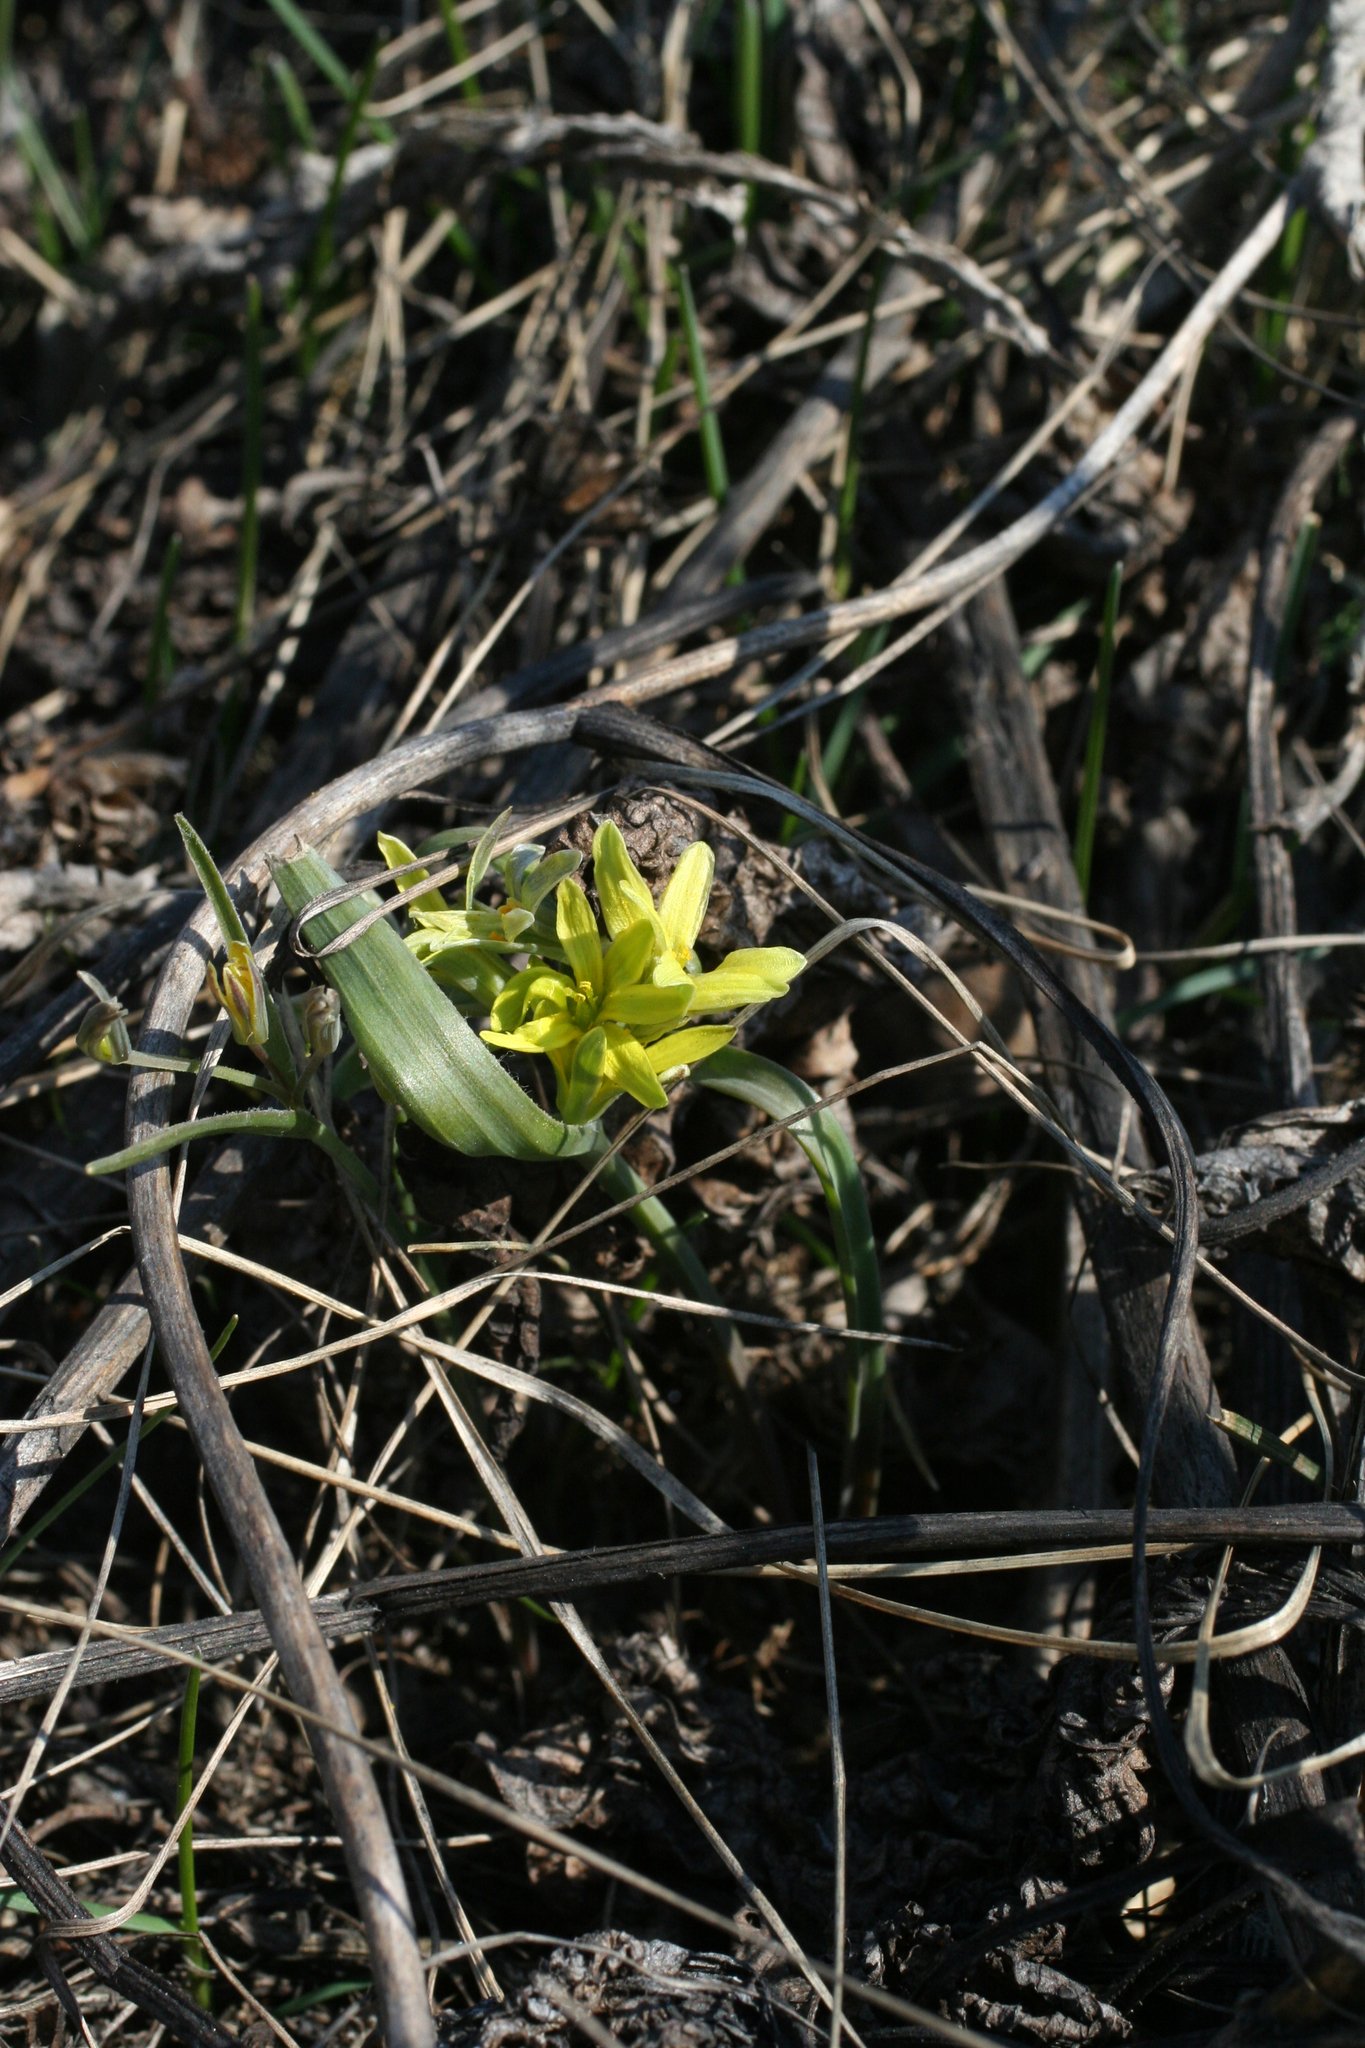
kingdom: Plantae
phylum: Tracheophyta
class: Liliopsida
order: Liliales
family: Liliaceae
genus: Gagea
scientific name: Gagea fedtschenkoana
